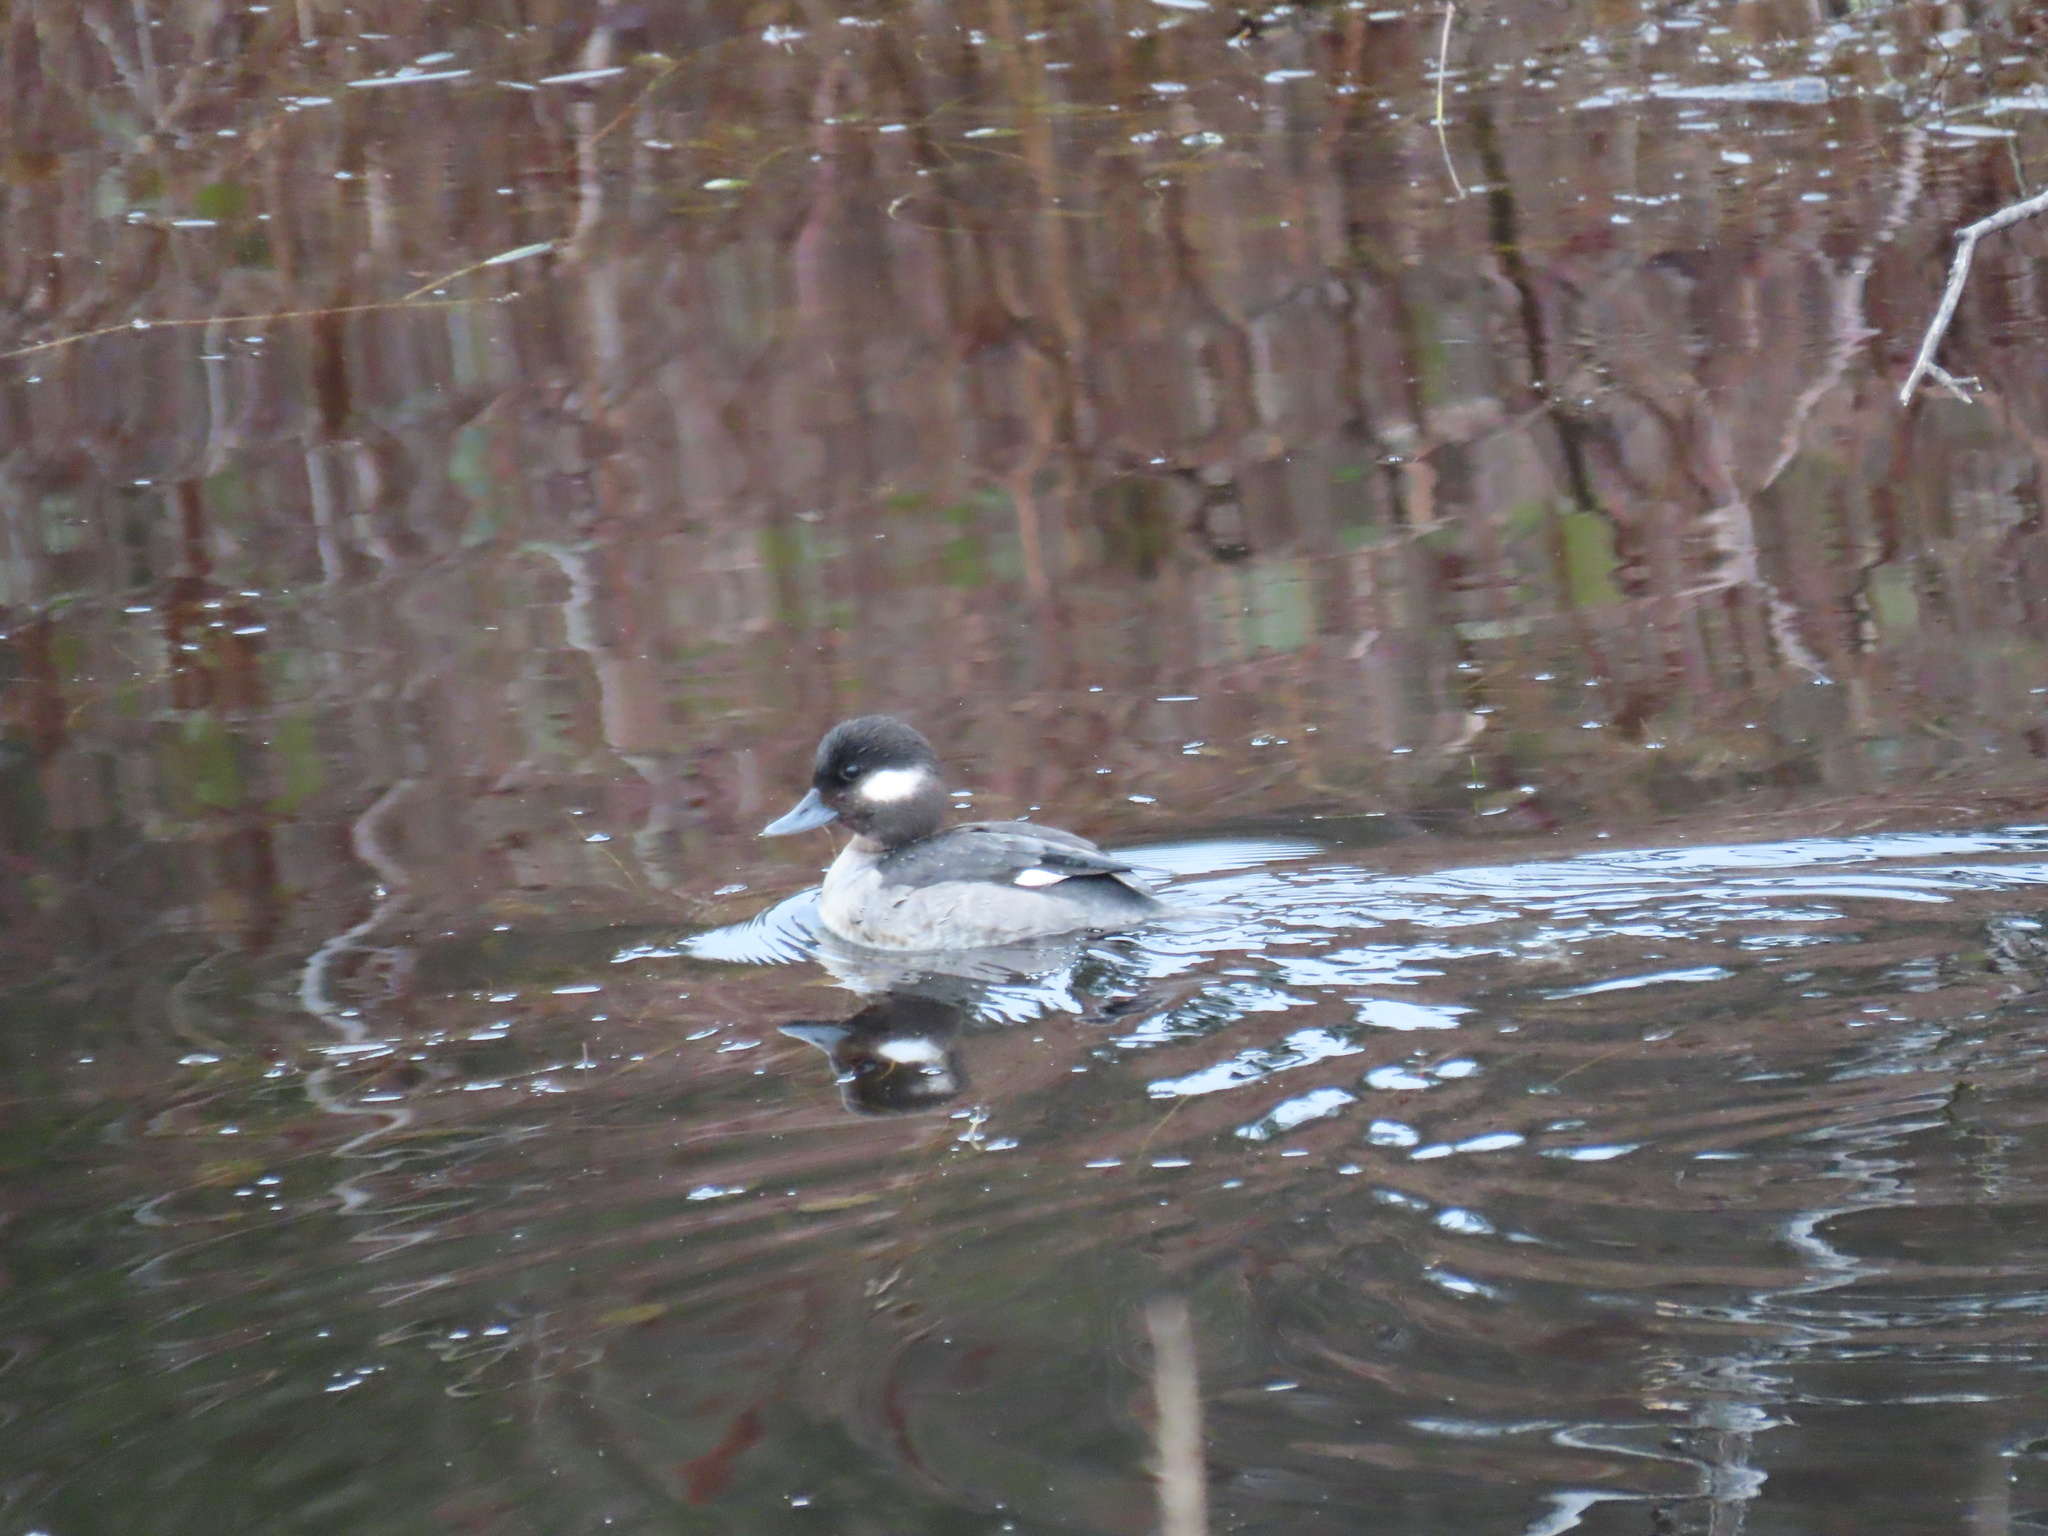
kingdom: Animalia
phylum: Chordata
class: Aves
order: Anseriformes
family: Anatidae
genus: Bucephala
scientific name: Bucephala albeola
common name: Bufflehead
